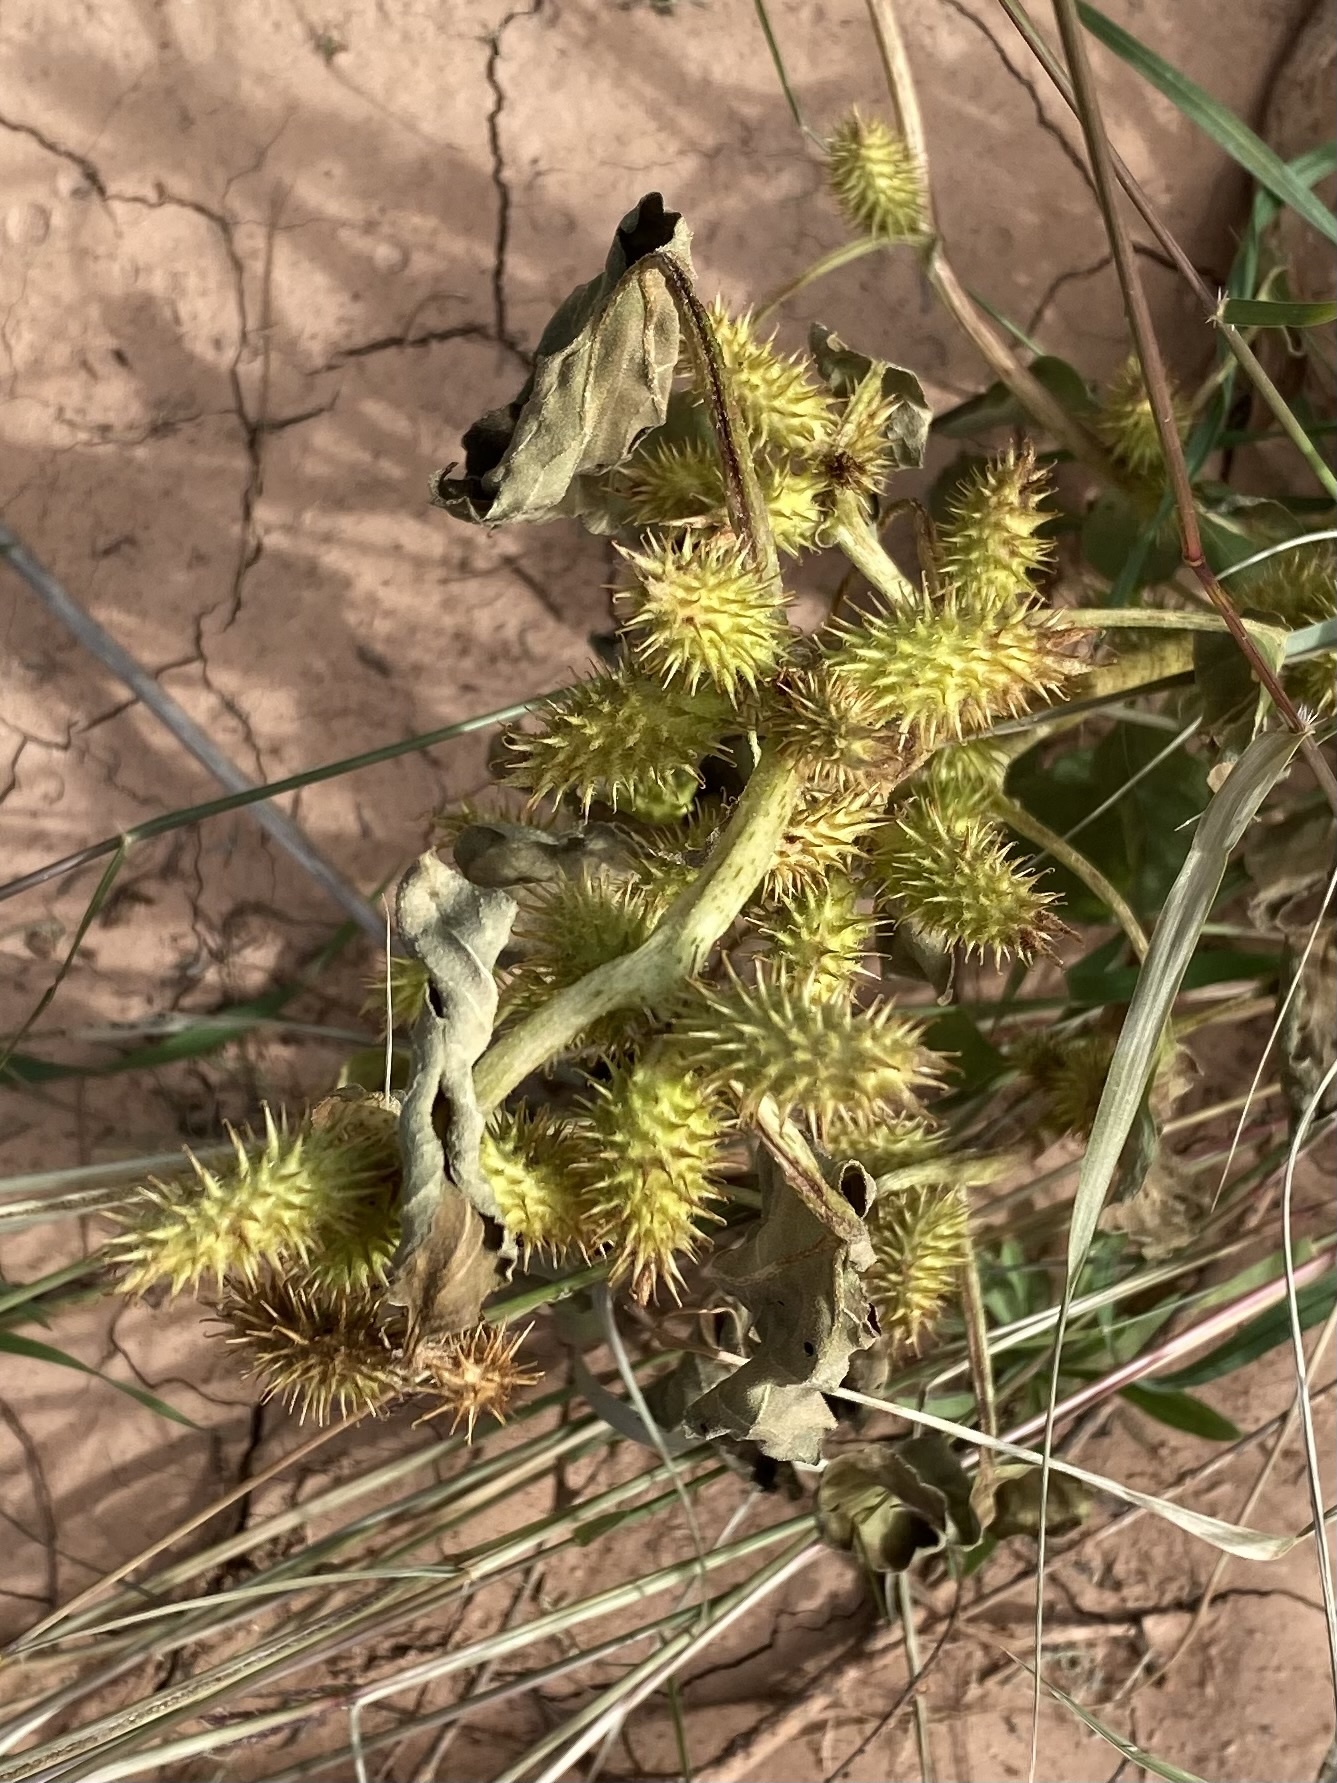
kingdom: Plantae
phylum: Tracheophyta
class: Magnoliopsida
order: Asterales
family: Asteraceae
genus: Xanthium
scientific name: Xanthium strumarium
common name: Rough cocklebur
